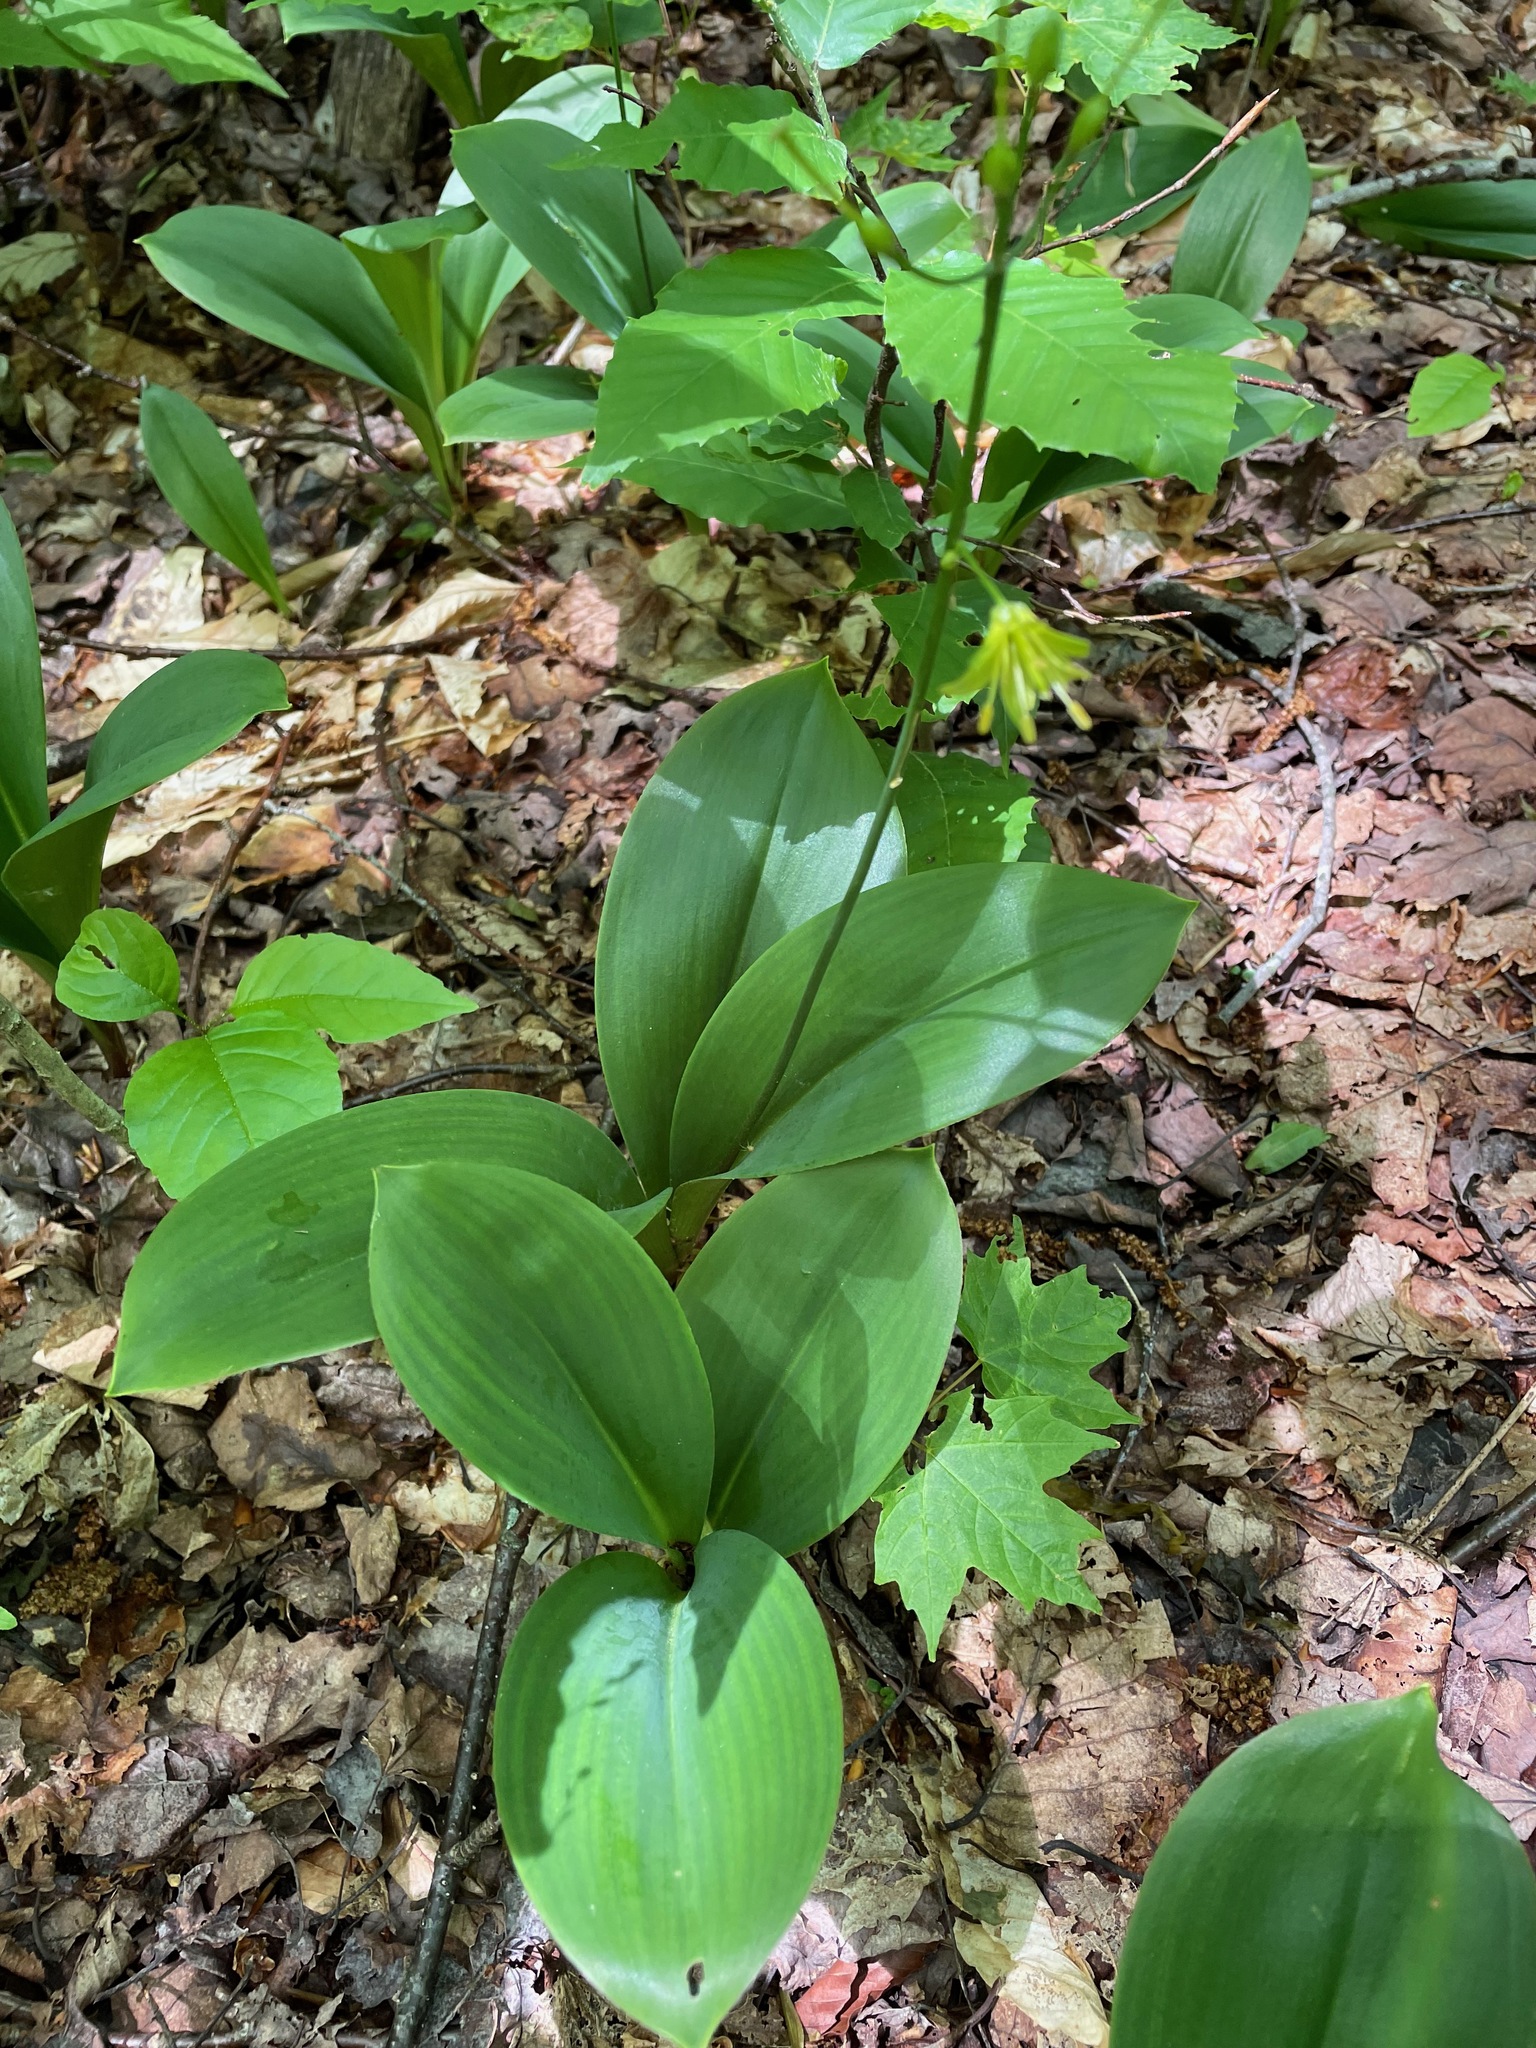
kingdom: Plantae
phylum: Tracheophyta
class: Liliopsida
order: Liliales
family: Liliaceae
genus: Clintonia
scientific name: Clintonia borealis
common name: Yellow clintonia
